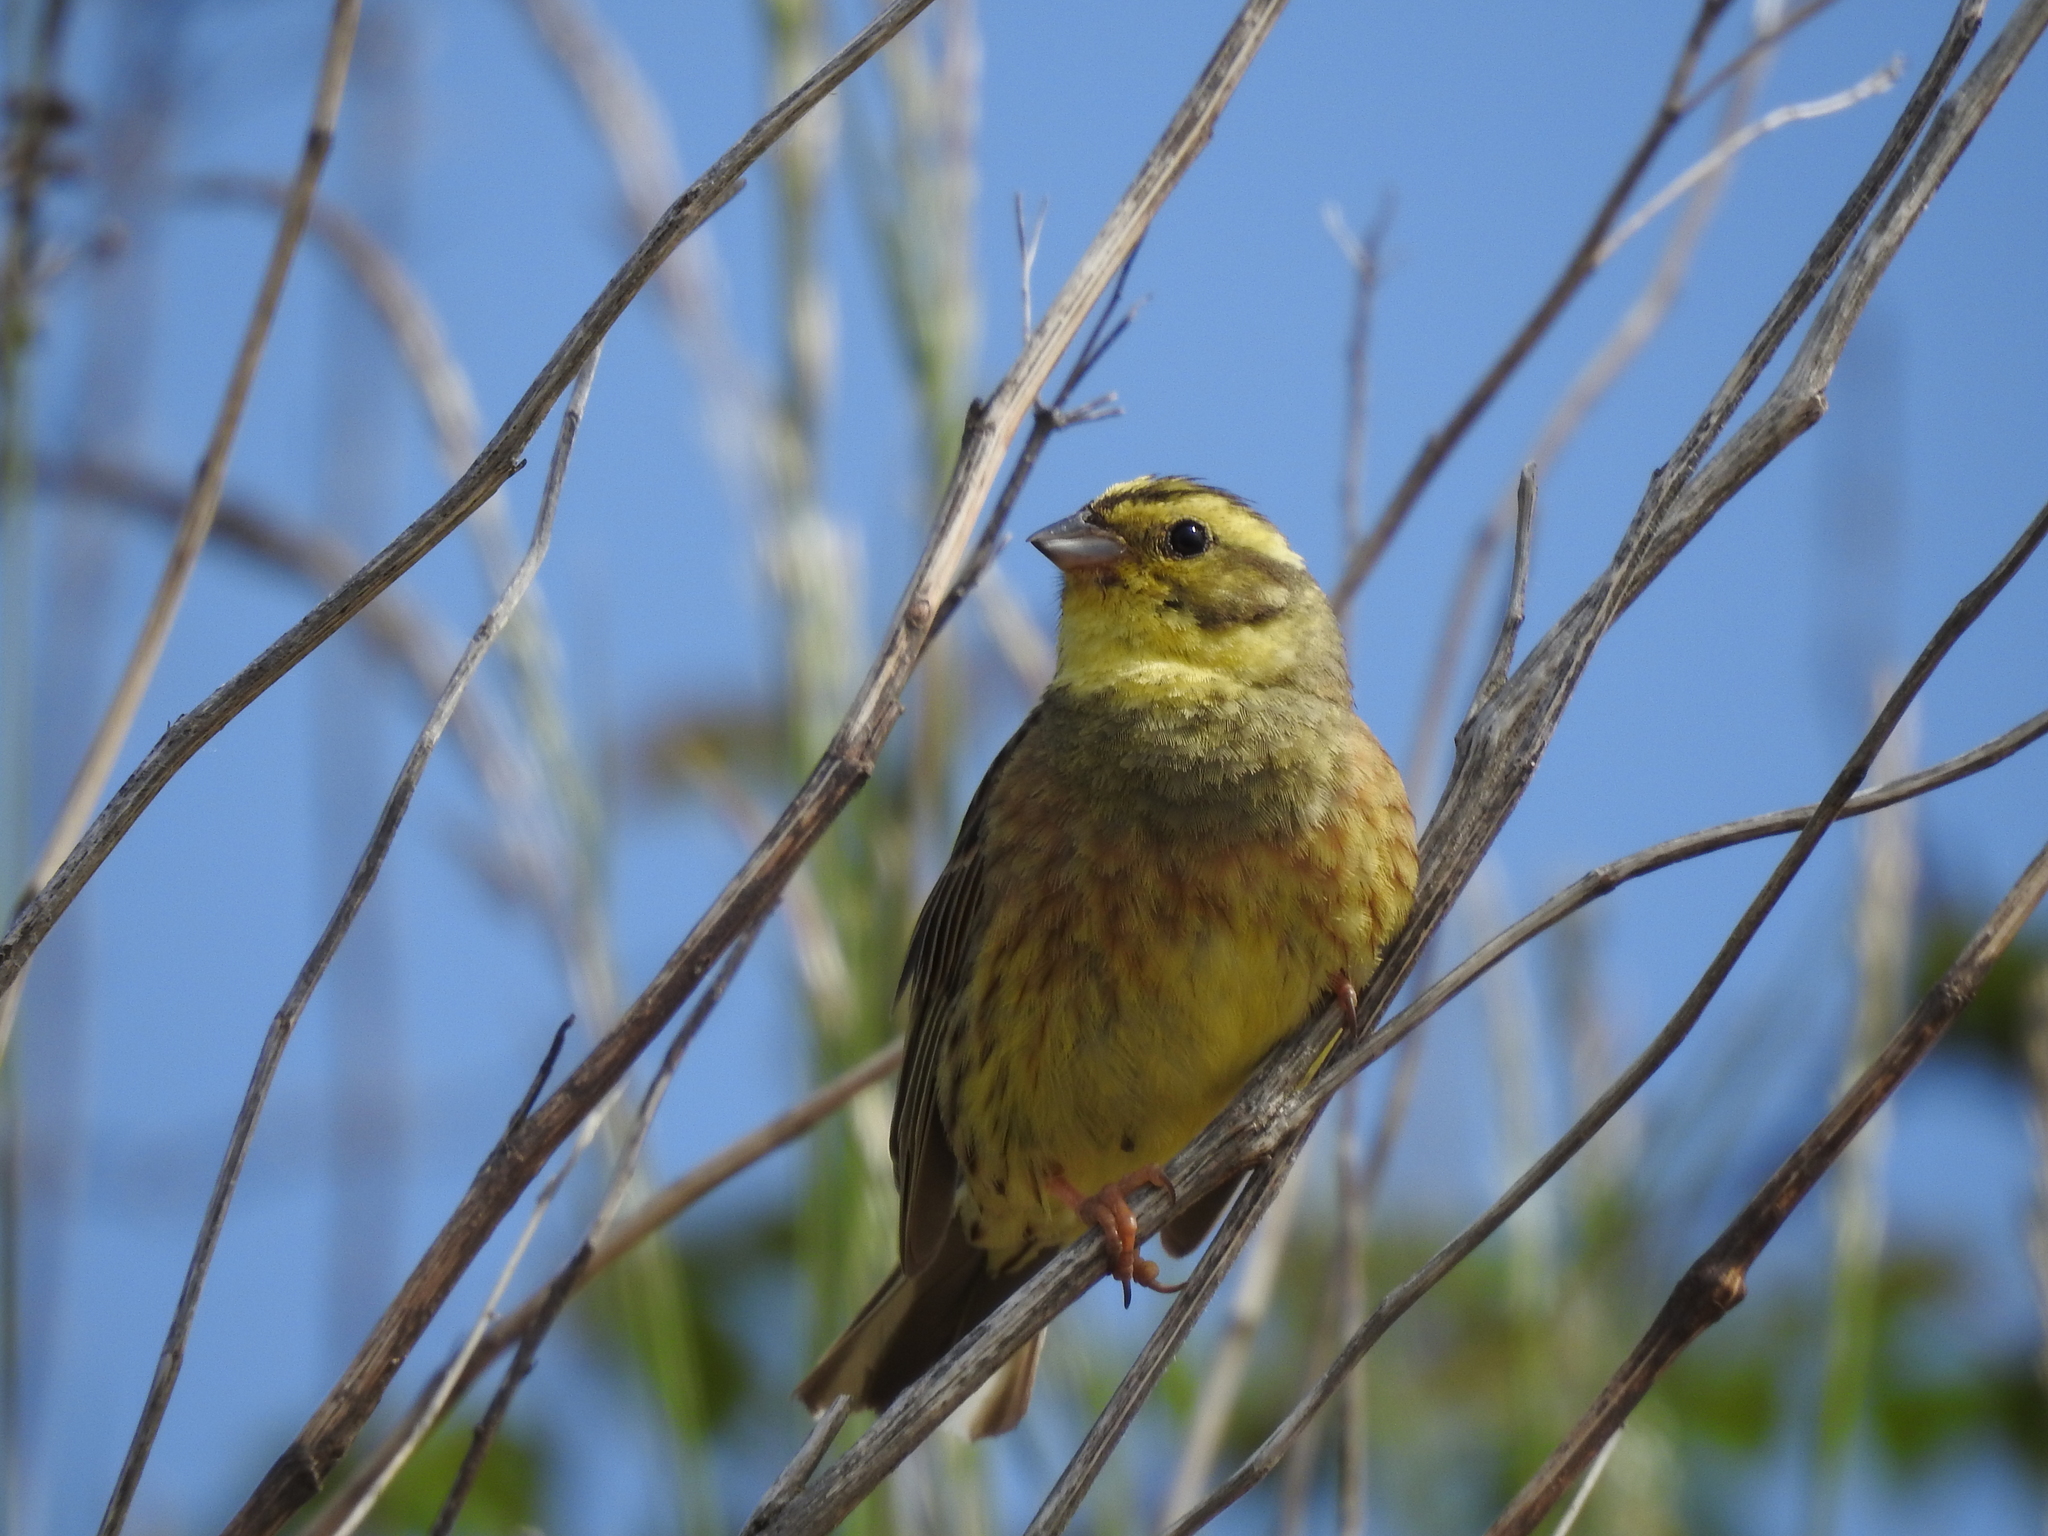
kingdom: Animalia
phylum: Chordata
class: Aves
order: Passeriformes
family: Emberizidae
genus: Emberiza
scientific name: Emberiza citrinella
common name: Yellowhammer
